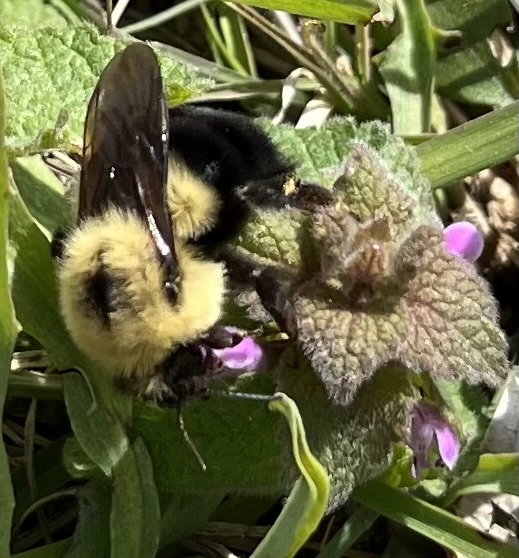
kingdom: Animalia
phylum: Arthropoda
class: Insecta
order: Hymenoptera
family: Apidae
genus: Bombus
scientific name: Bombus bimaculatus
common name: Two-spotted bumble bee
